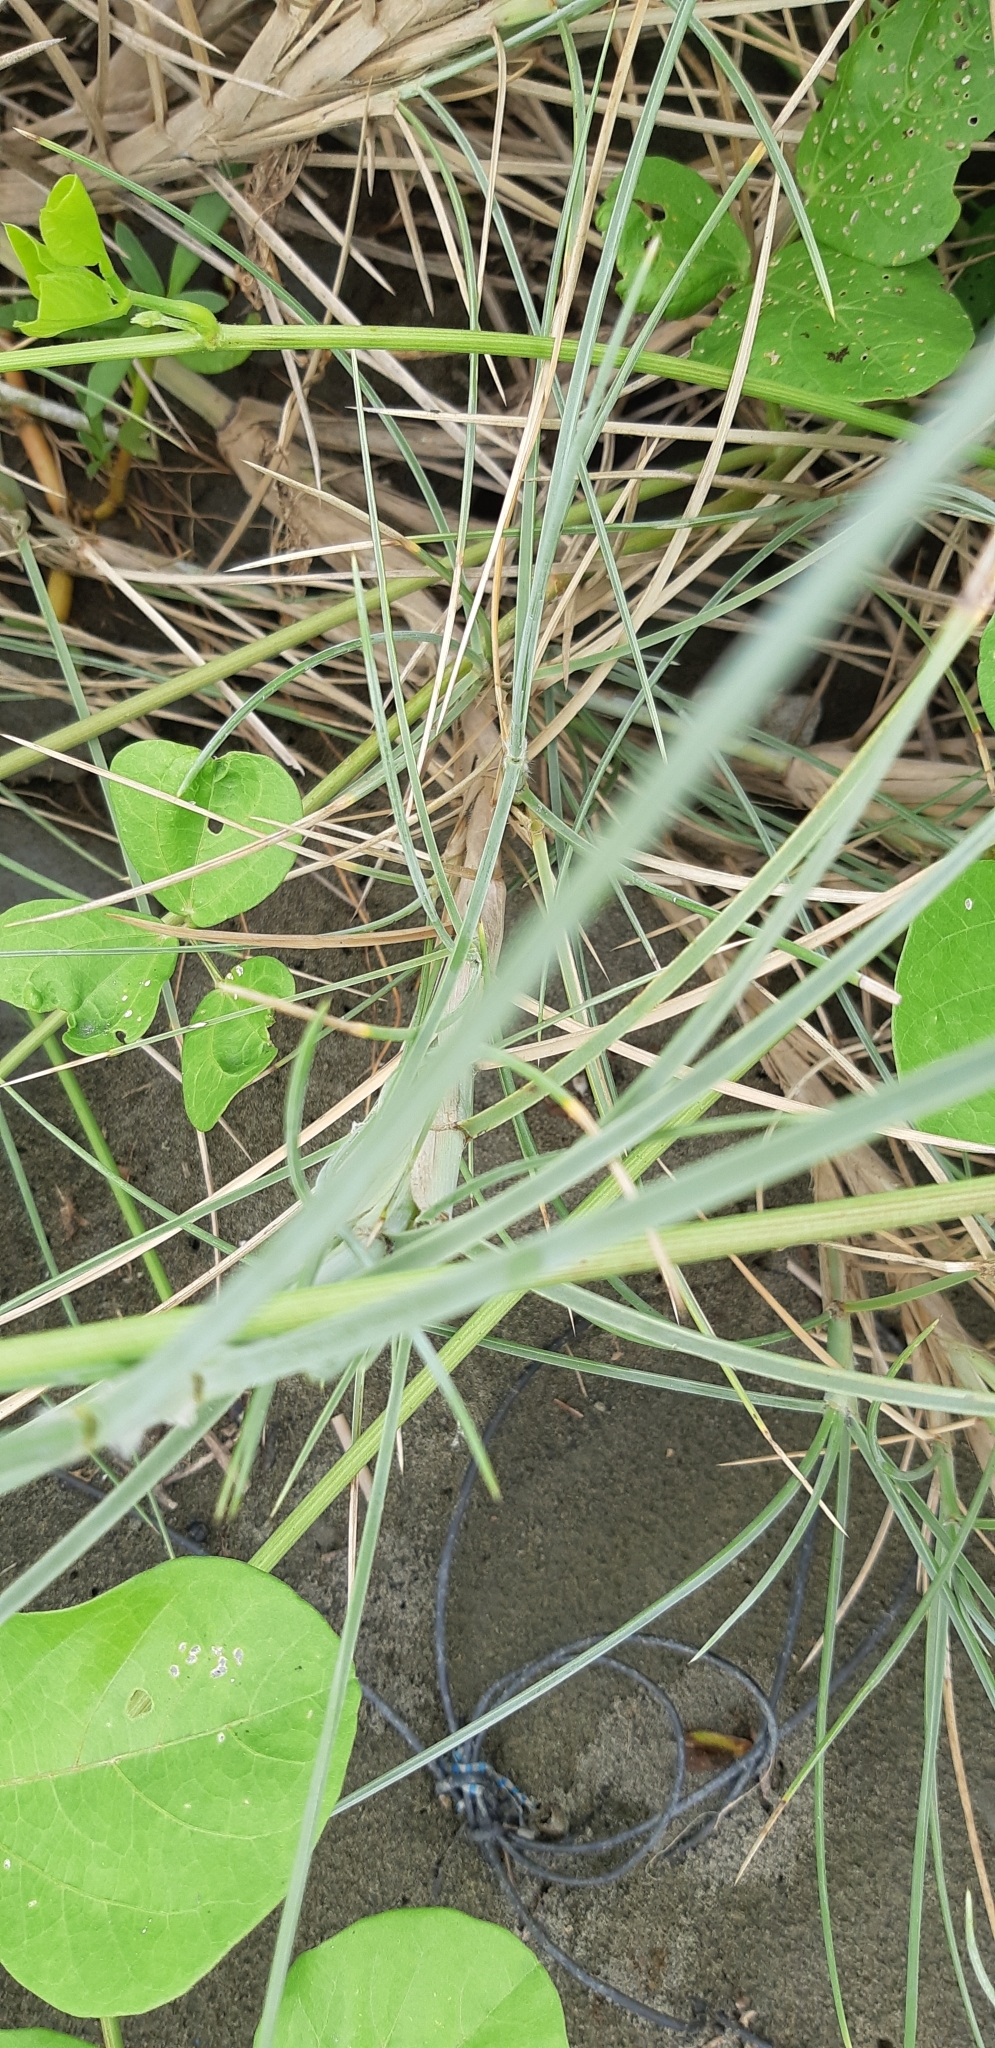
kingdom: Plantae
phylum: Tracheophyta
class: Liliopsida
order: Poales
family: Poaceae
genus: Spinifex
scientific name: Spinifex littoreus
